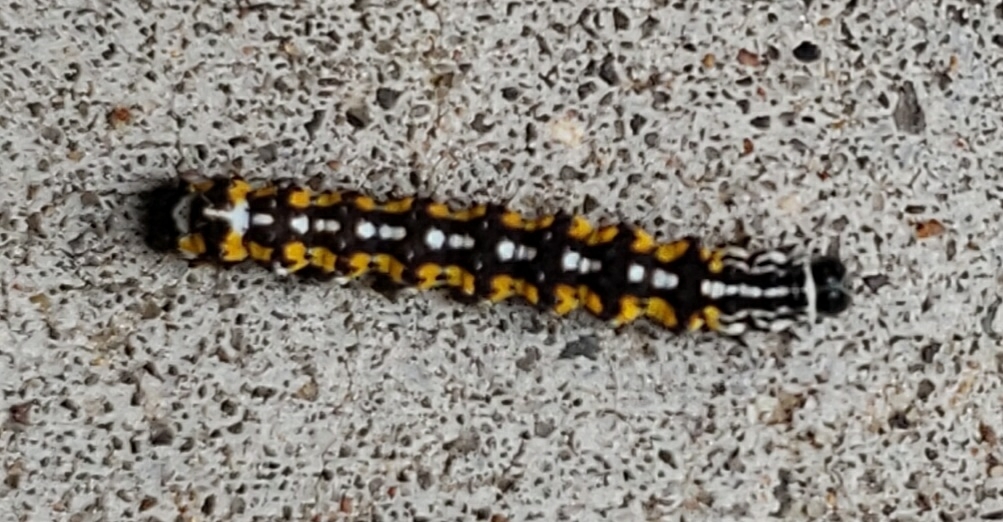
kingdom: Animalia
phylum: Arthropoda
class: Insecta
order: Lepidoptera
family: Noctuidae
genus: Cerma
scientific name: Cerma cora
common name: Bird dropping moth
